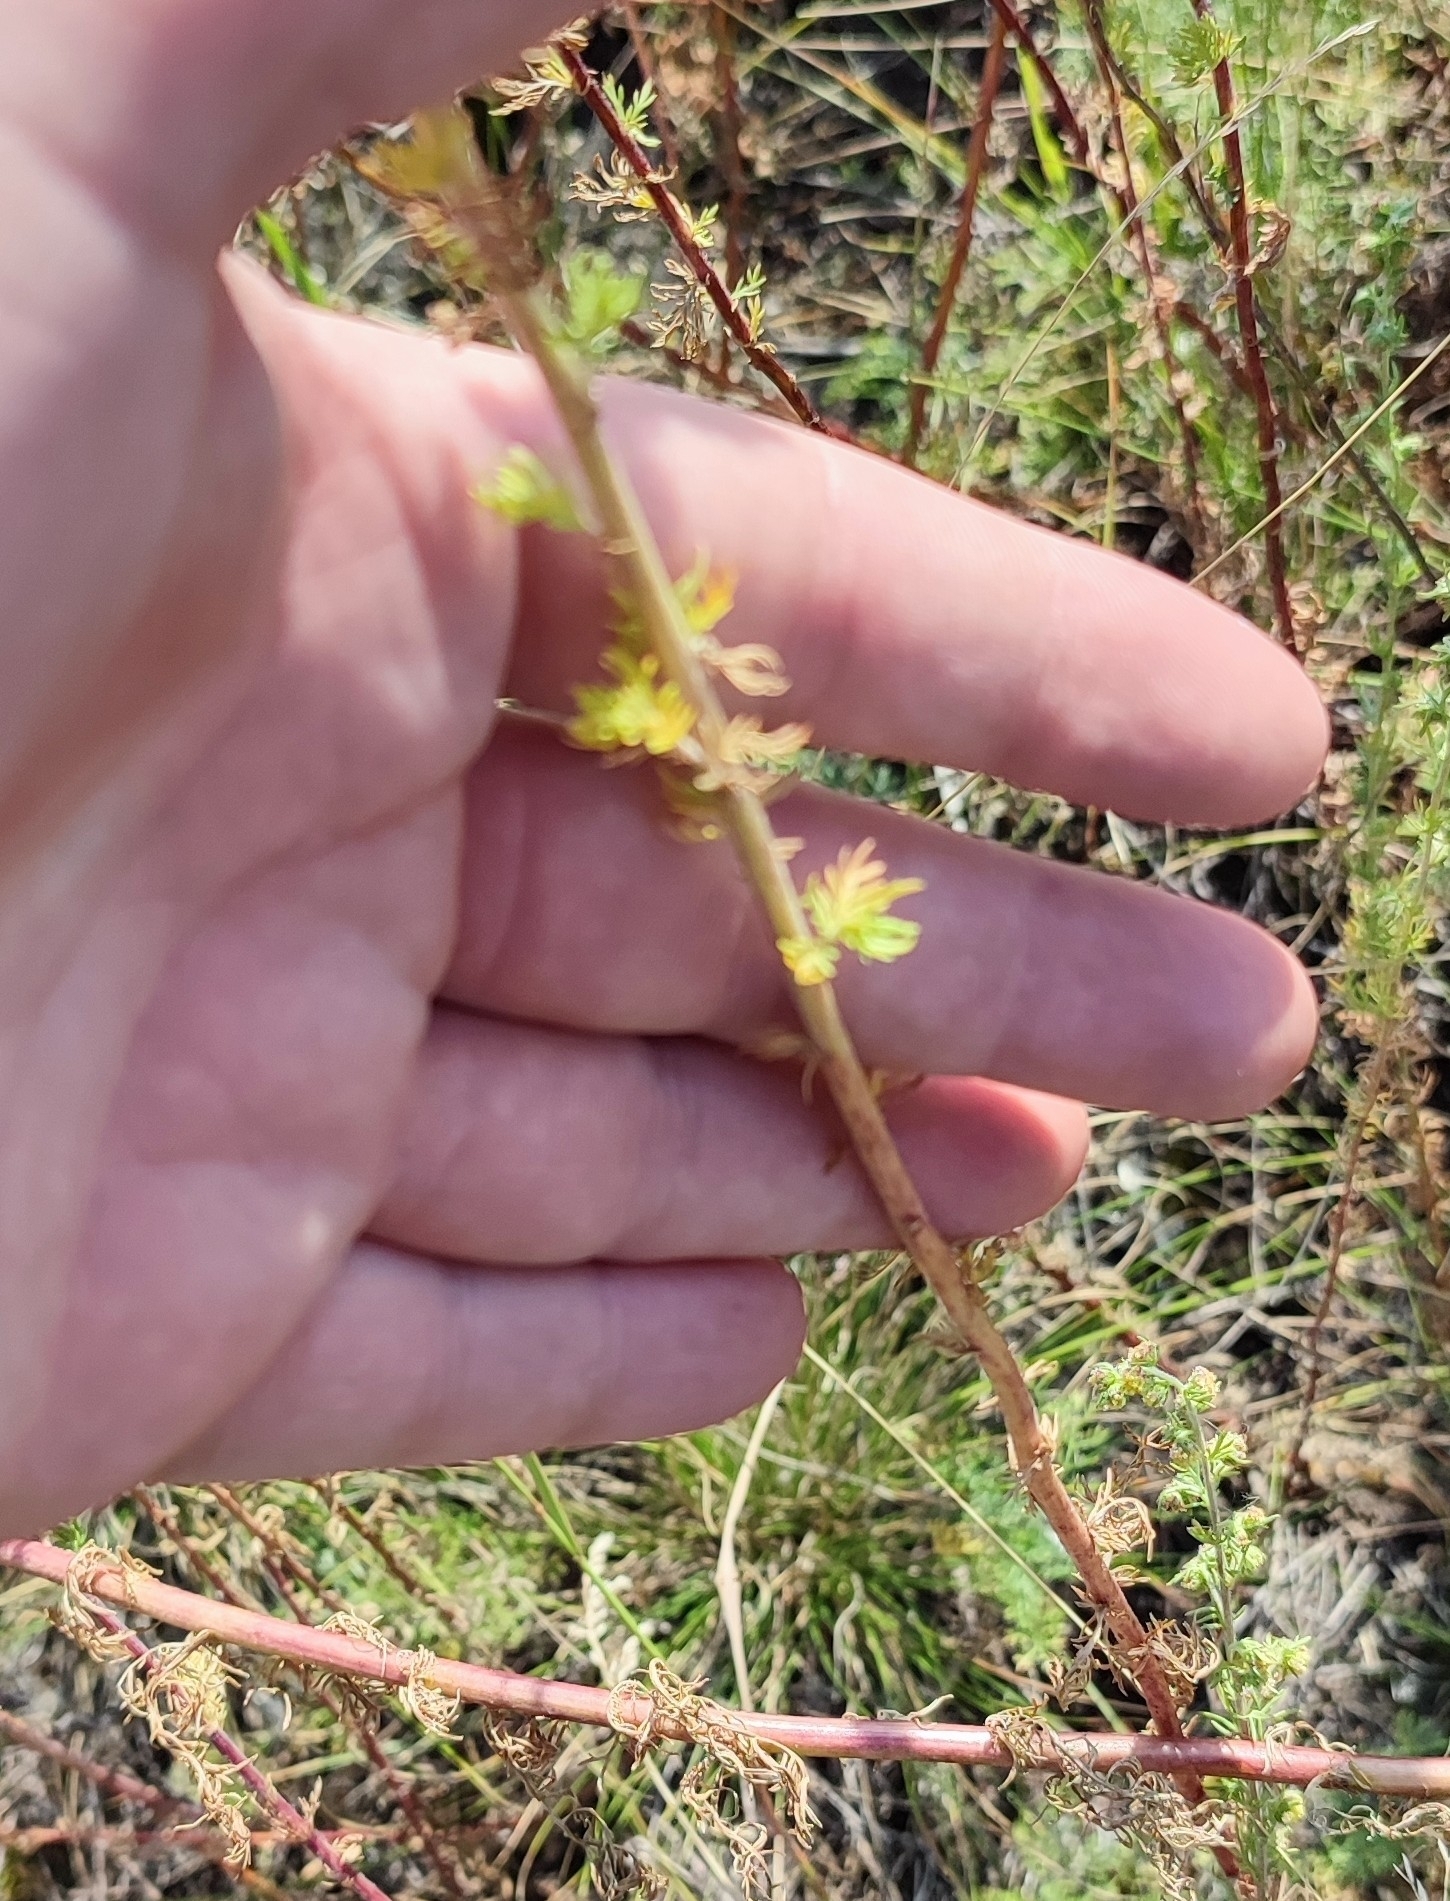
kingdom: Plantae
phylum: Tracheophyta
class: Magnoliopsida
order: Asterales
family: Asteraceae
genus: Artemisia
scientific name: Artemisia rupestris
